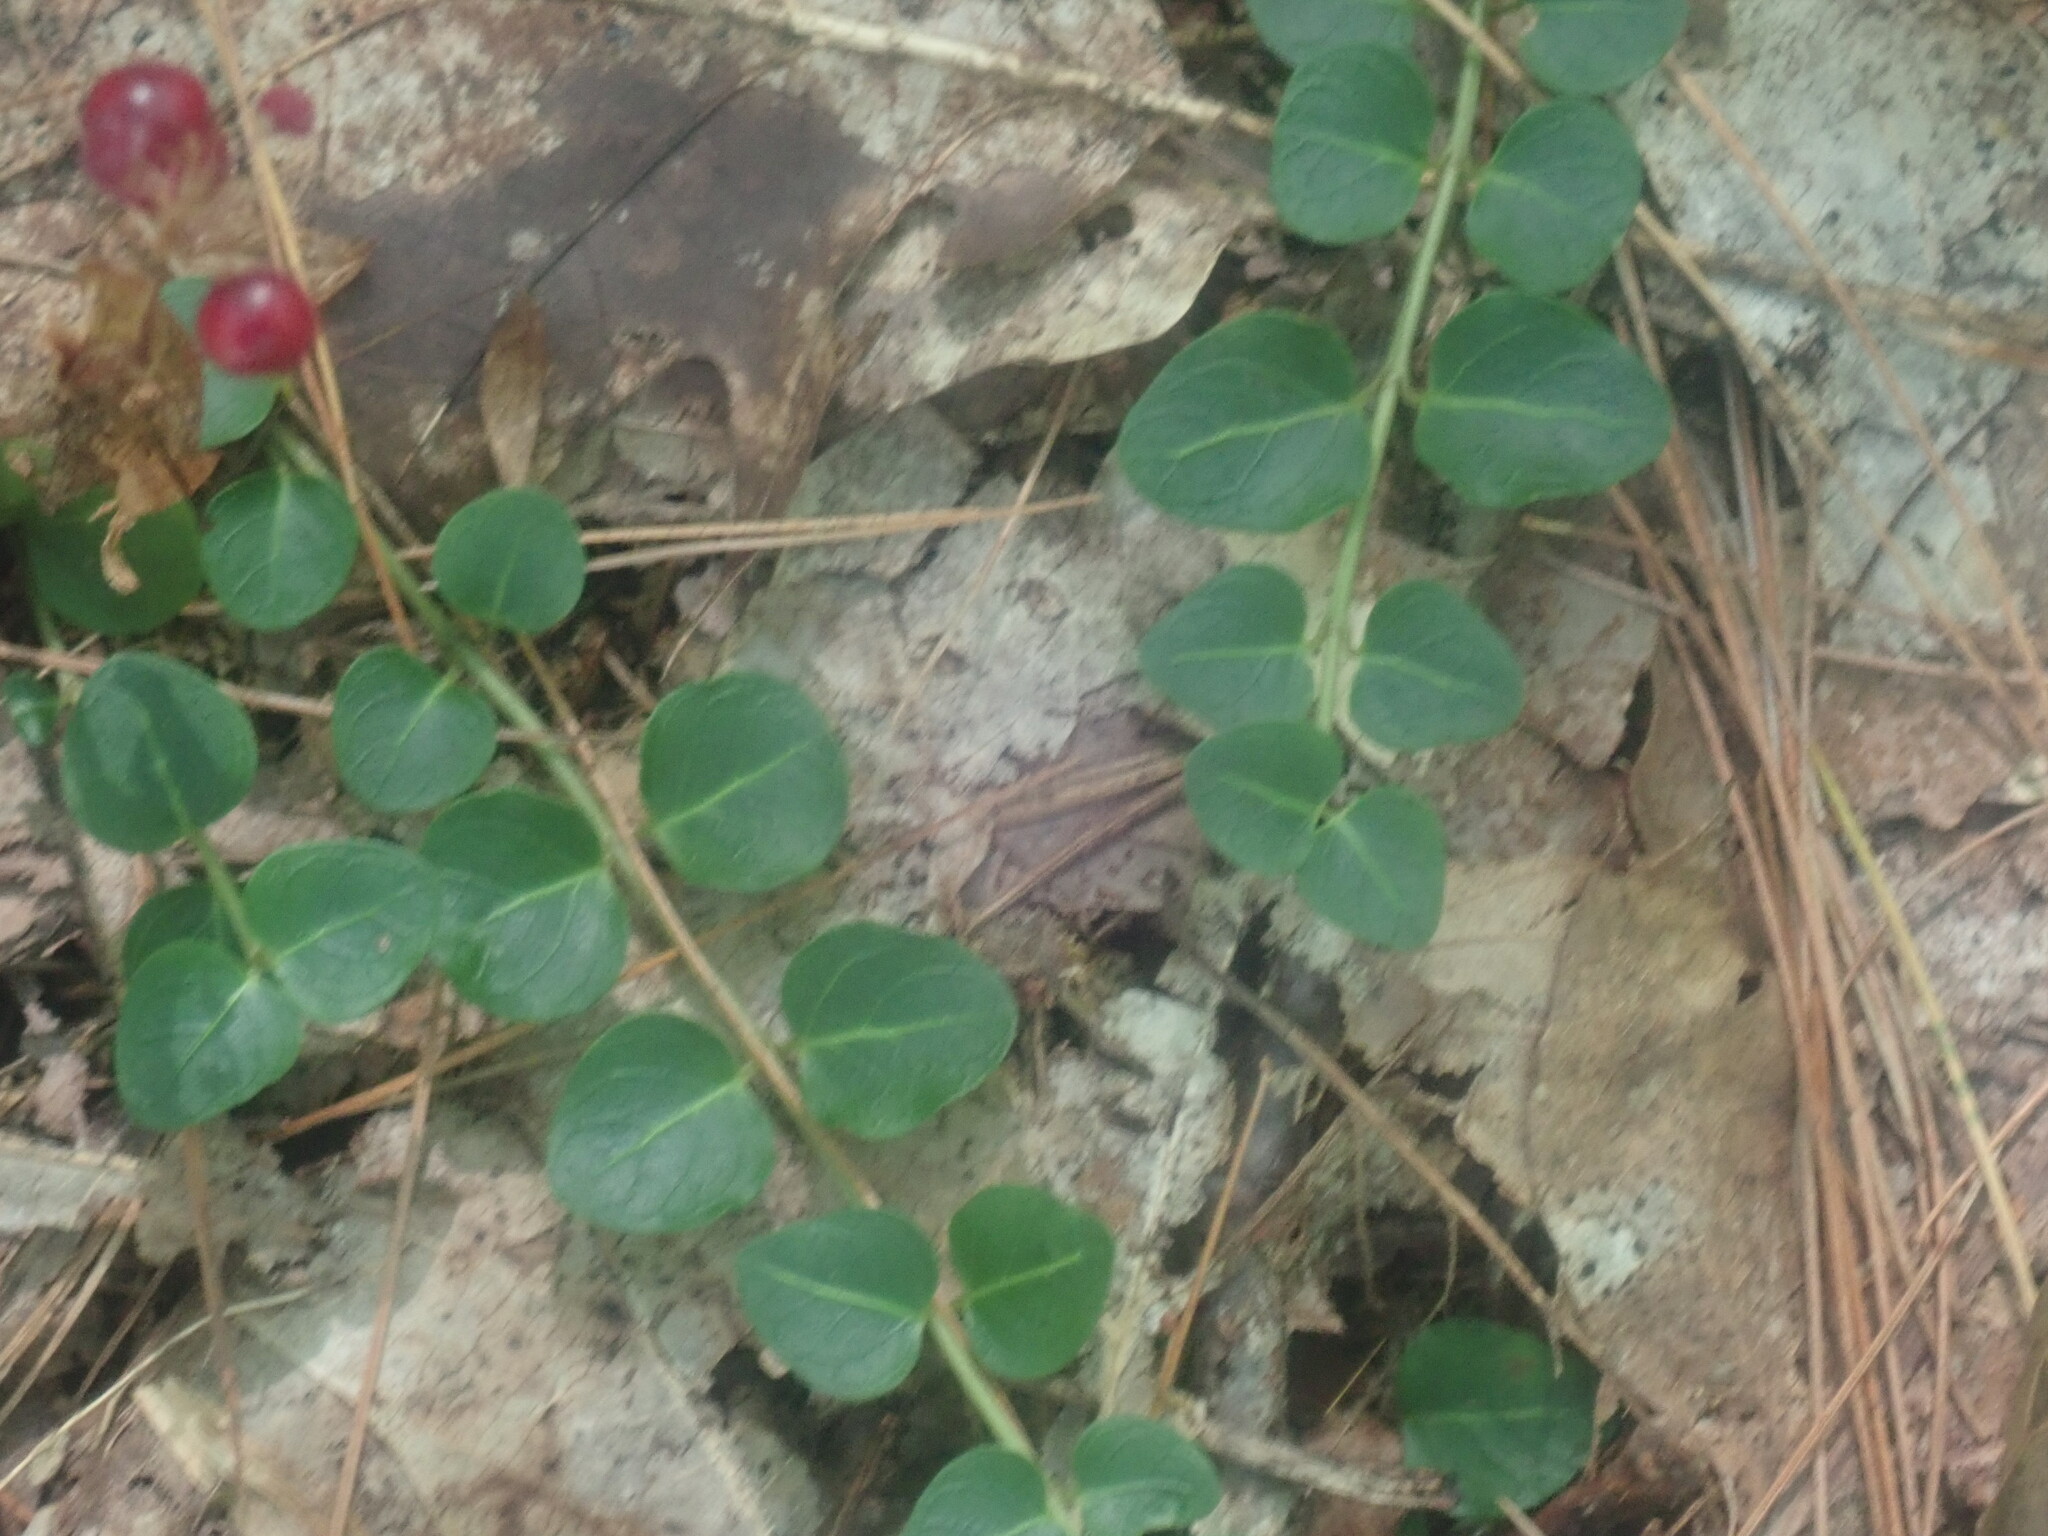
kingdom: Plantae
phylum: Tracheophyta
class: Magnoliopsida
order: Gentianales
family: Rubiaceae
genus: Mitchella
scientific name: Mitchella repens
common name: Partridge-berry
